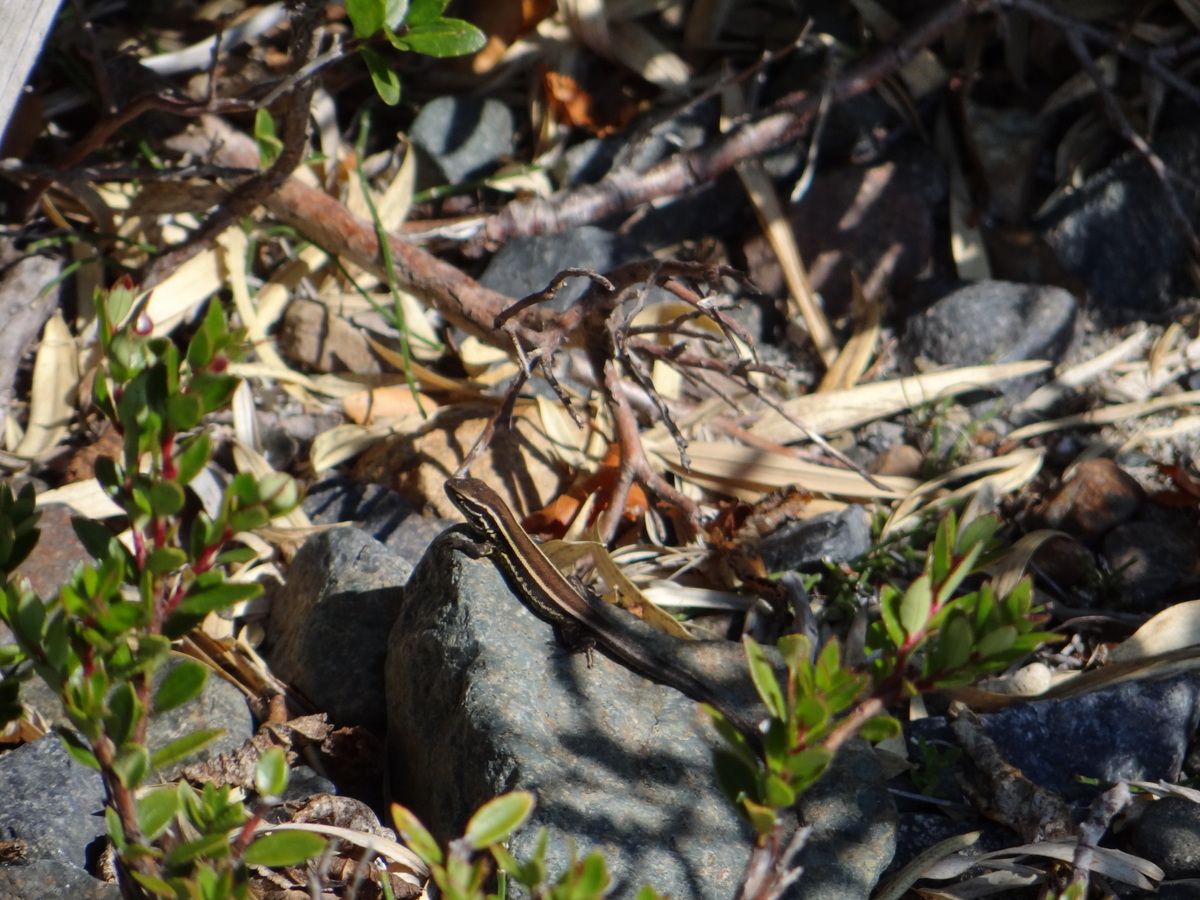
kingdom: Animalia
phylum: Chordata
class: Squamata
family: Liolaemidae
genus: Liolaemus
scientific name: Liolaemus gracilis
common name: Graceful tree iguana
